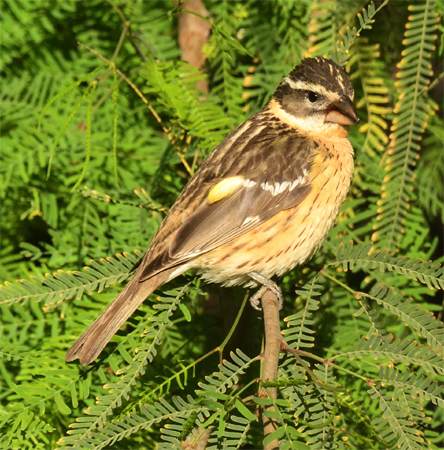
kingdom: Animalia
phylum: Chordata
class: Aves
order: Passeriformes
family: Cardinalidae
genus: Pheucticus
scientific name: Pheucticus melanocephalus
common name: Black-headed grosbeak
